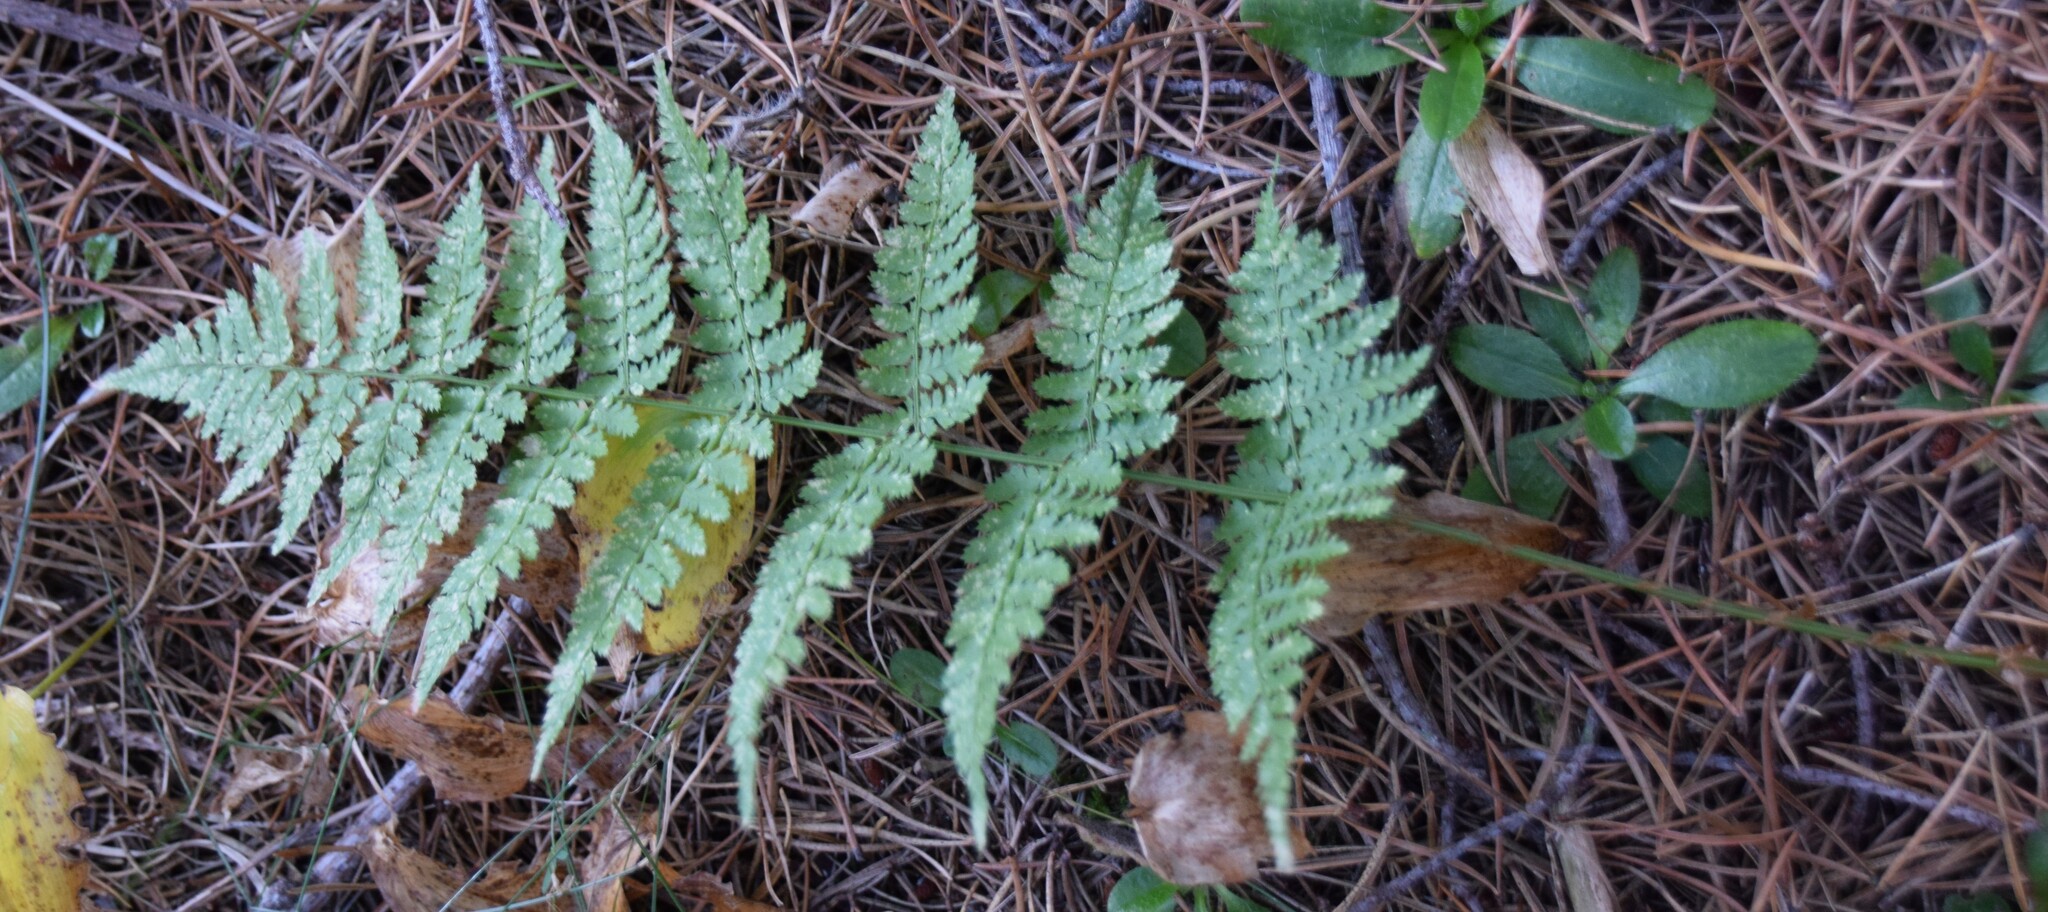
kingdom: Plantae
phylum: Tracheophyta
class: Polypodiopsida
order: Polypodiales
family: Dryopteridaceae
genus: Dryopteris
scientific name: Dryopteris intermedia
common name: Evergreen wood fern
